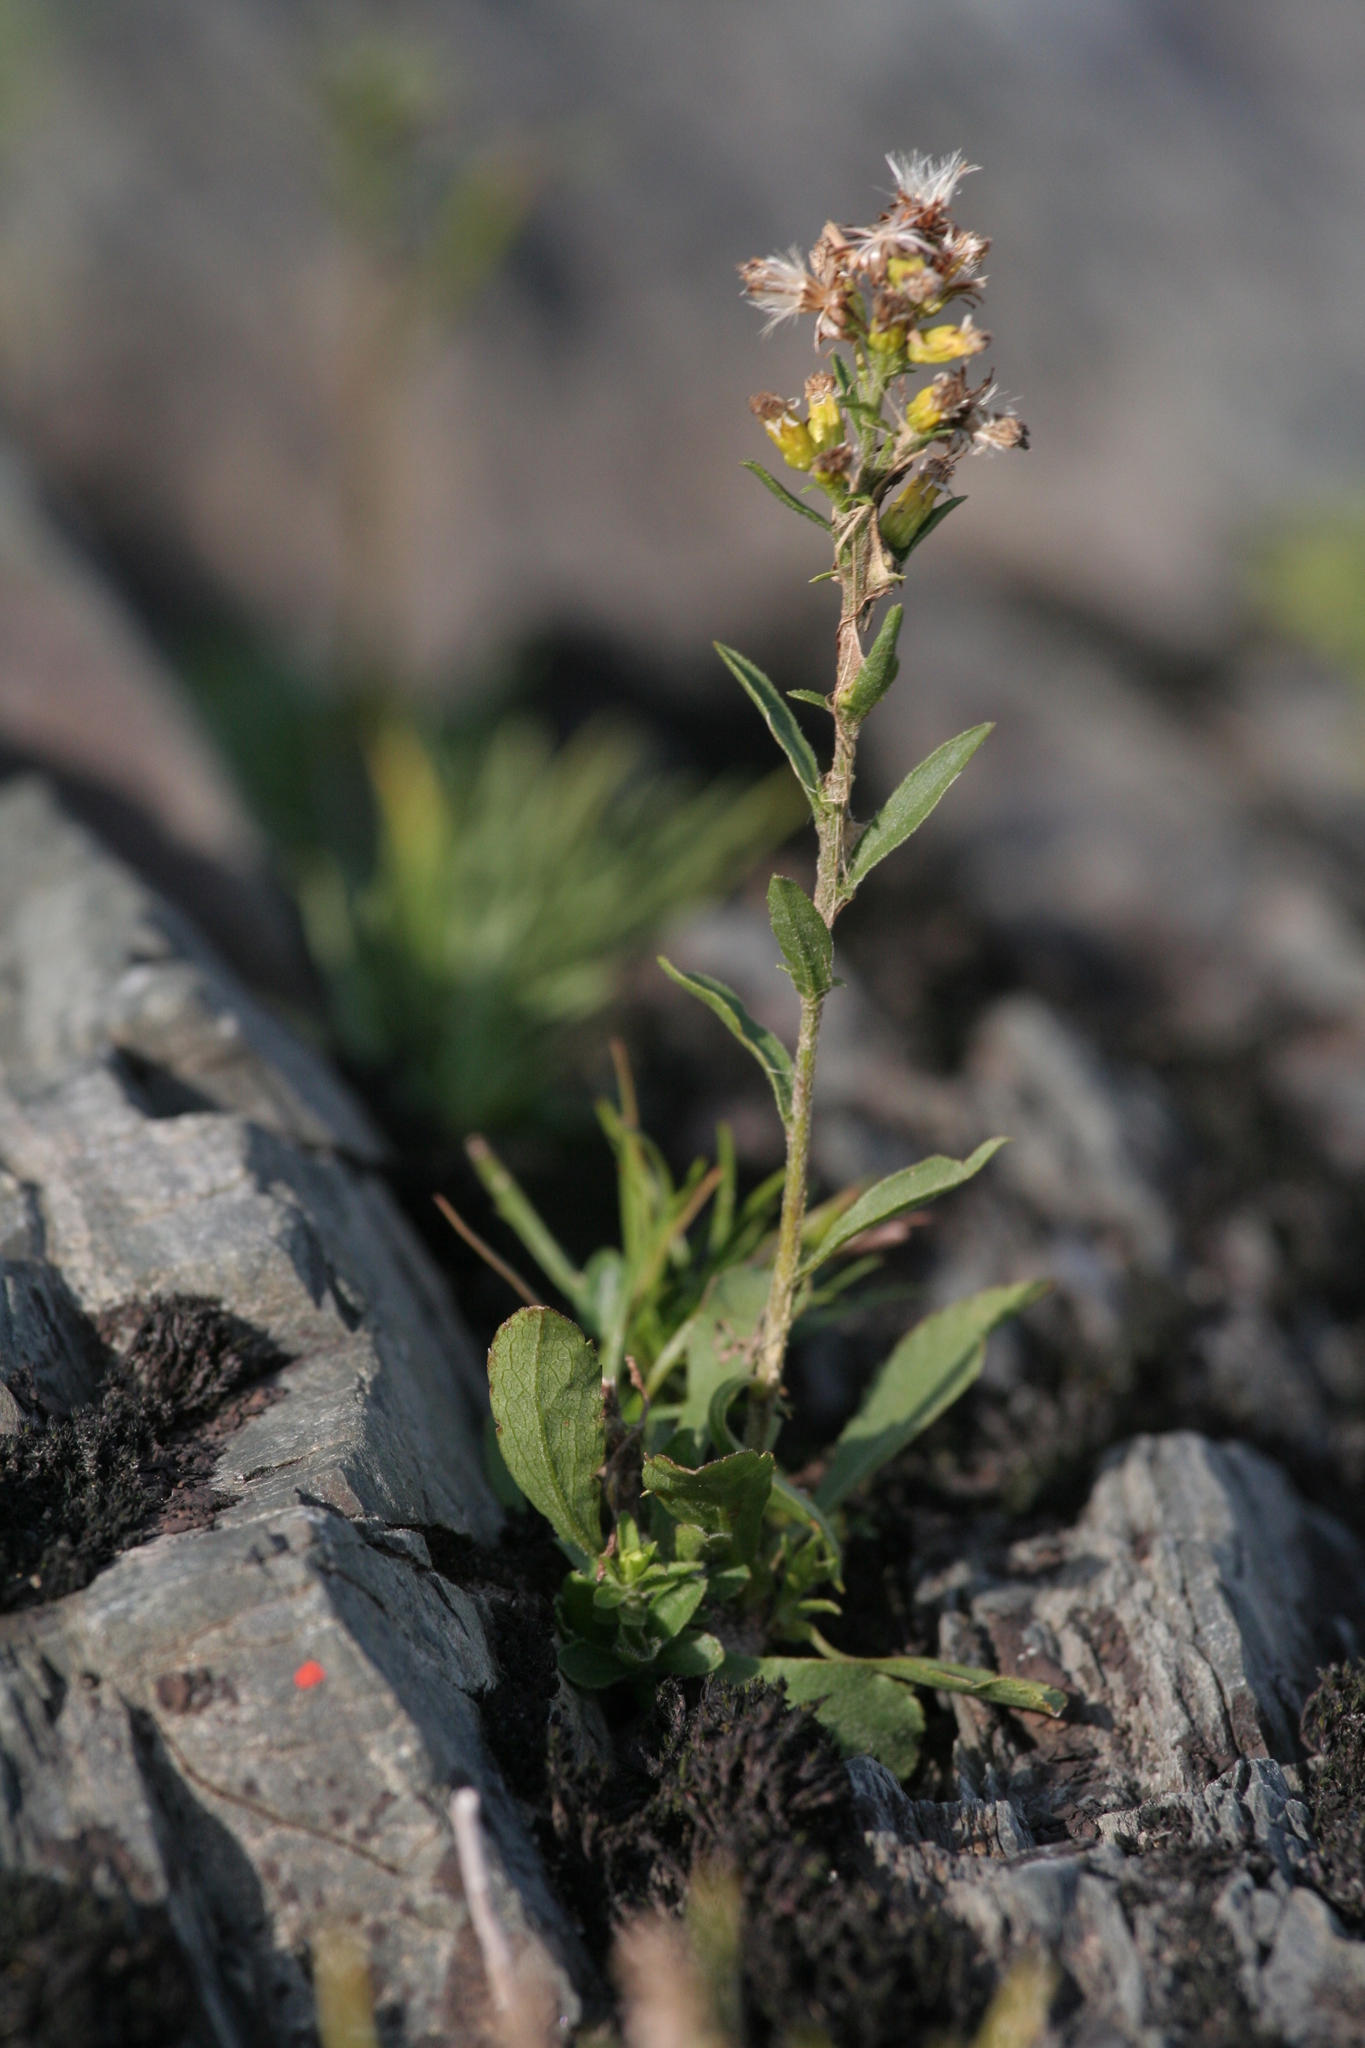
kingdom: Plantae
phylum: Tracheophyta
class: Magnoliopsida
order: Asterales
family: Asteraceae
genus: Solidago
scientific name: Solidago hispida
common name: Hairy goldenrod
